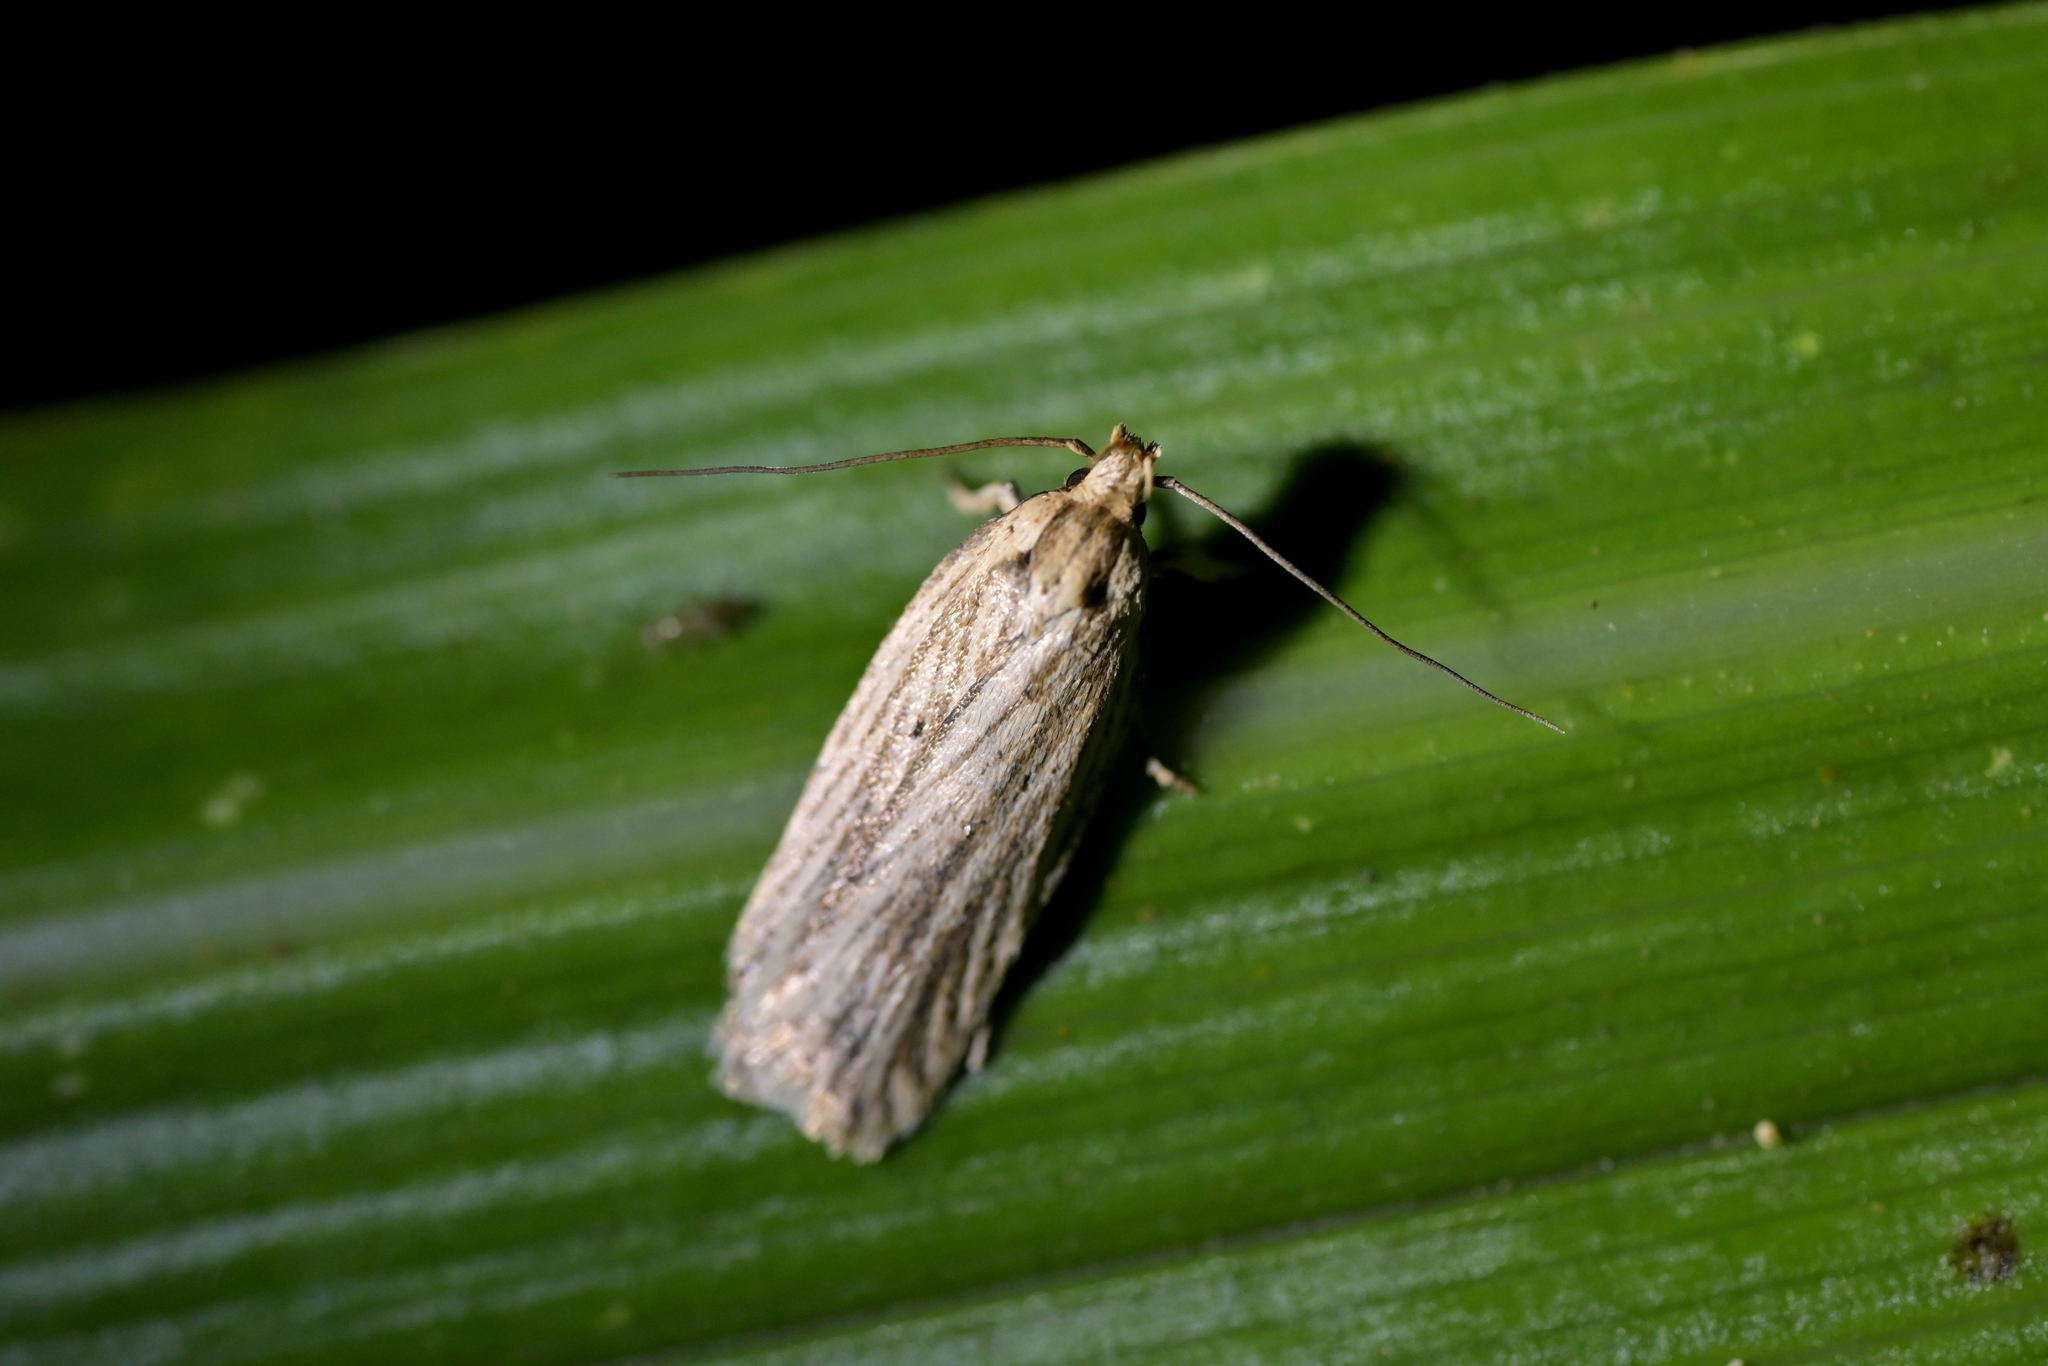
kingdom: Animalia
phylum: Arthropoda
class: Insecta
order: Lepidoptera
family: Depressariidae
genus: Agonopterix
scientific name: Agonopterix
